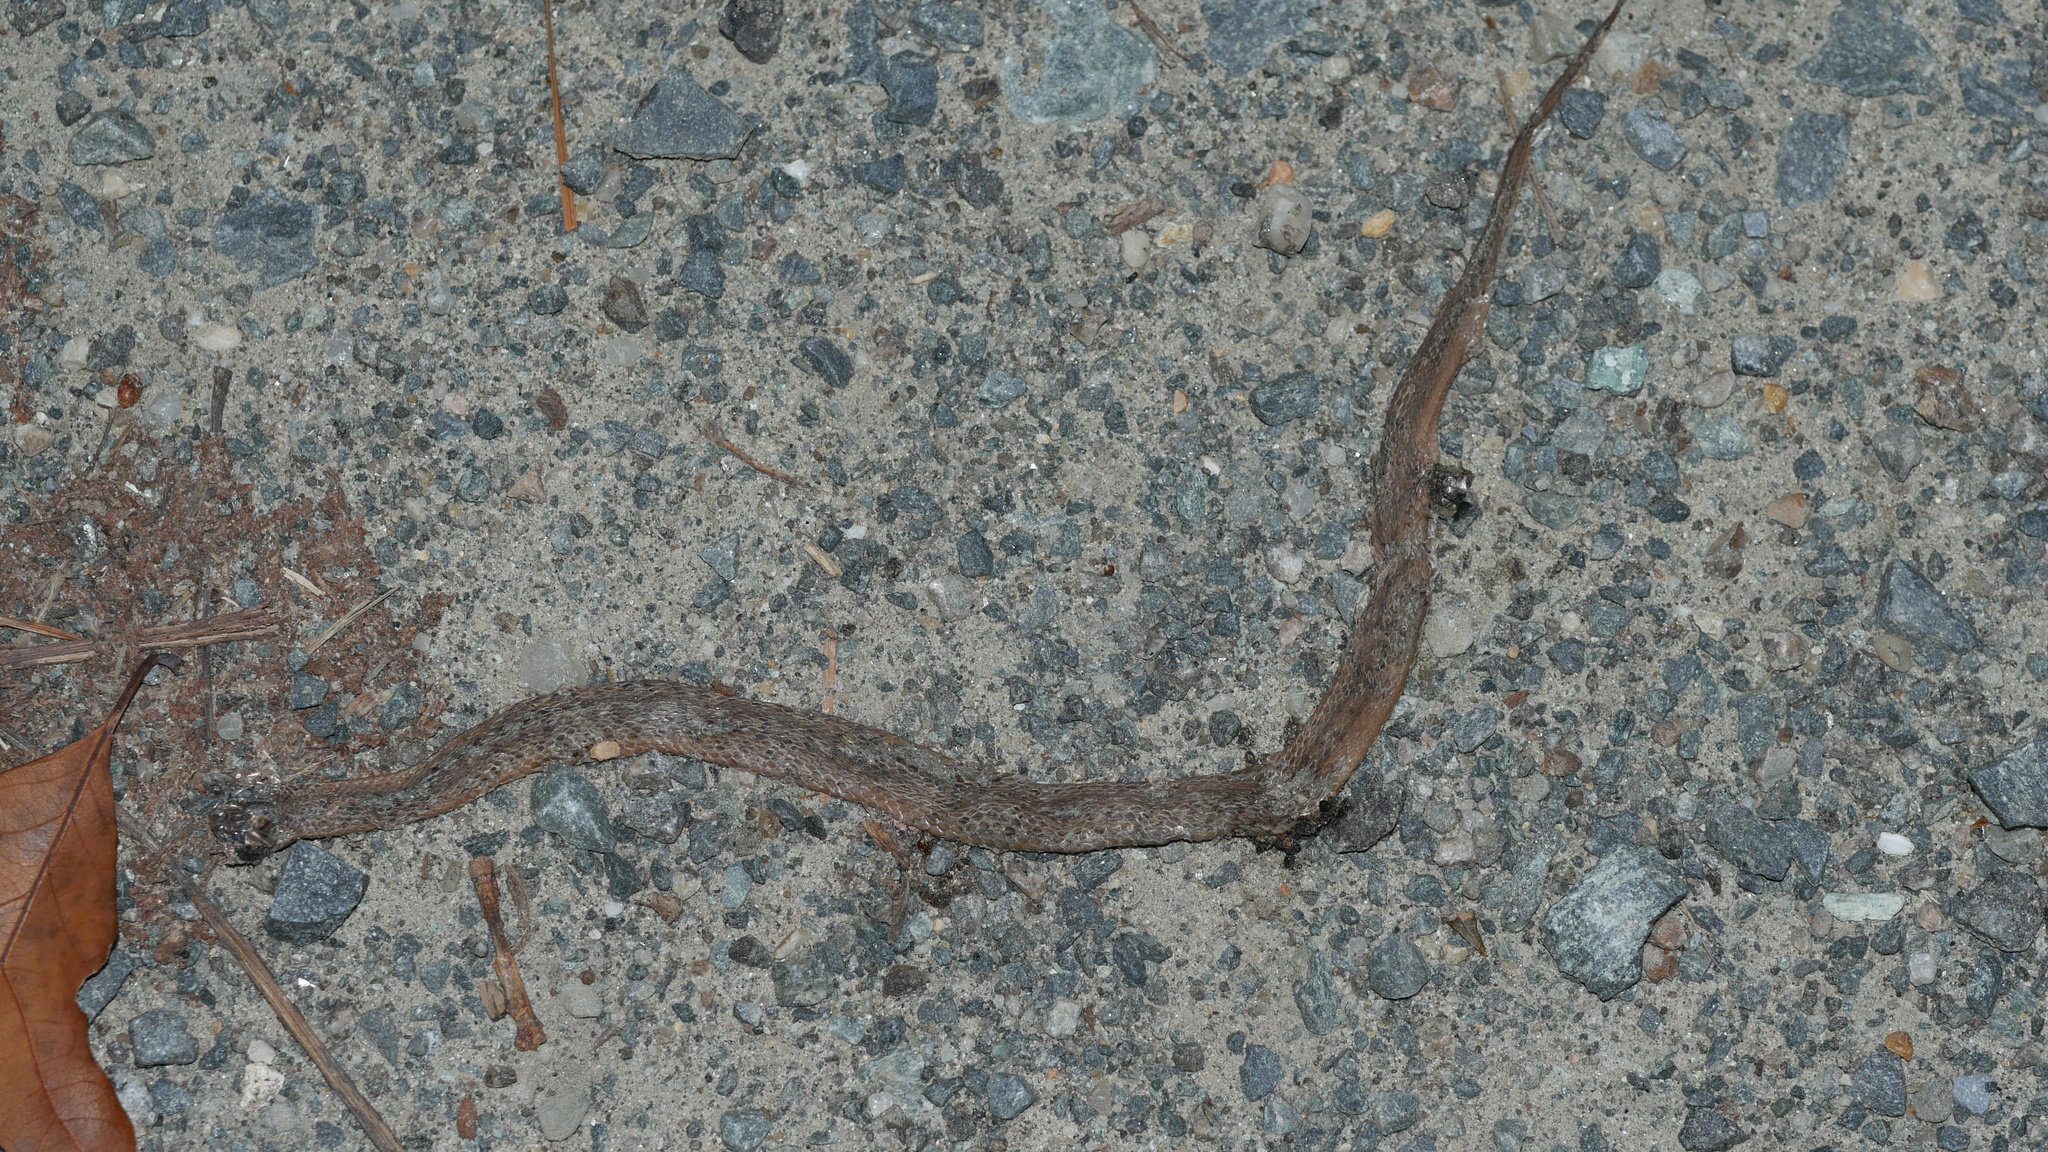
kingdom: Animalia
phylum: Chordata
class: Squamata
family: Colubridae
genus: Storeria
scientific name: Storeria dekayi
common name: (dekay’s) brown snake
